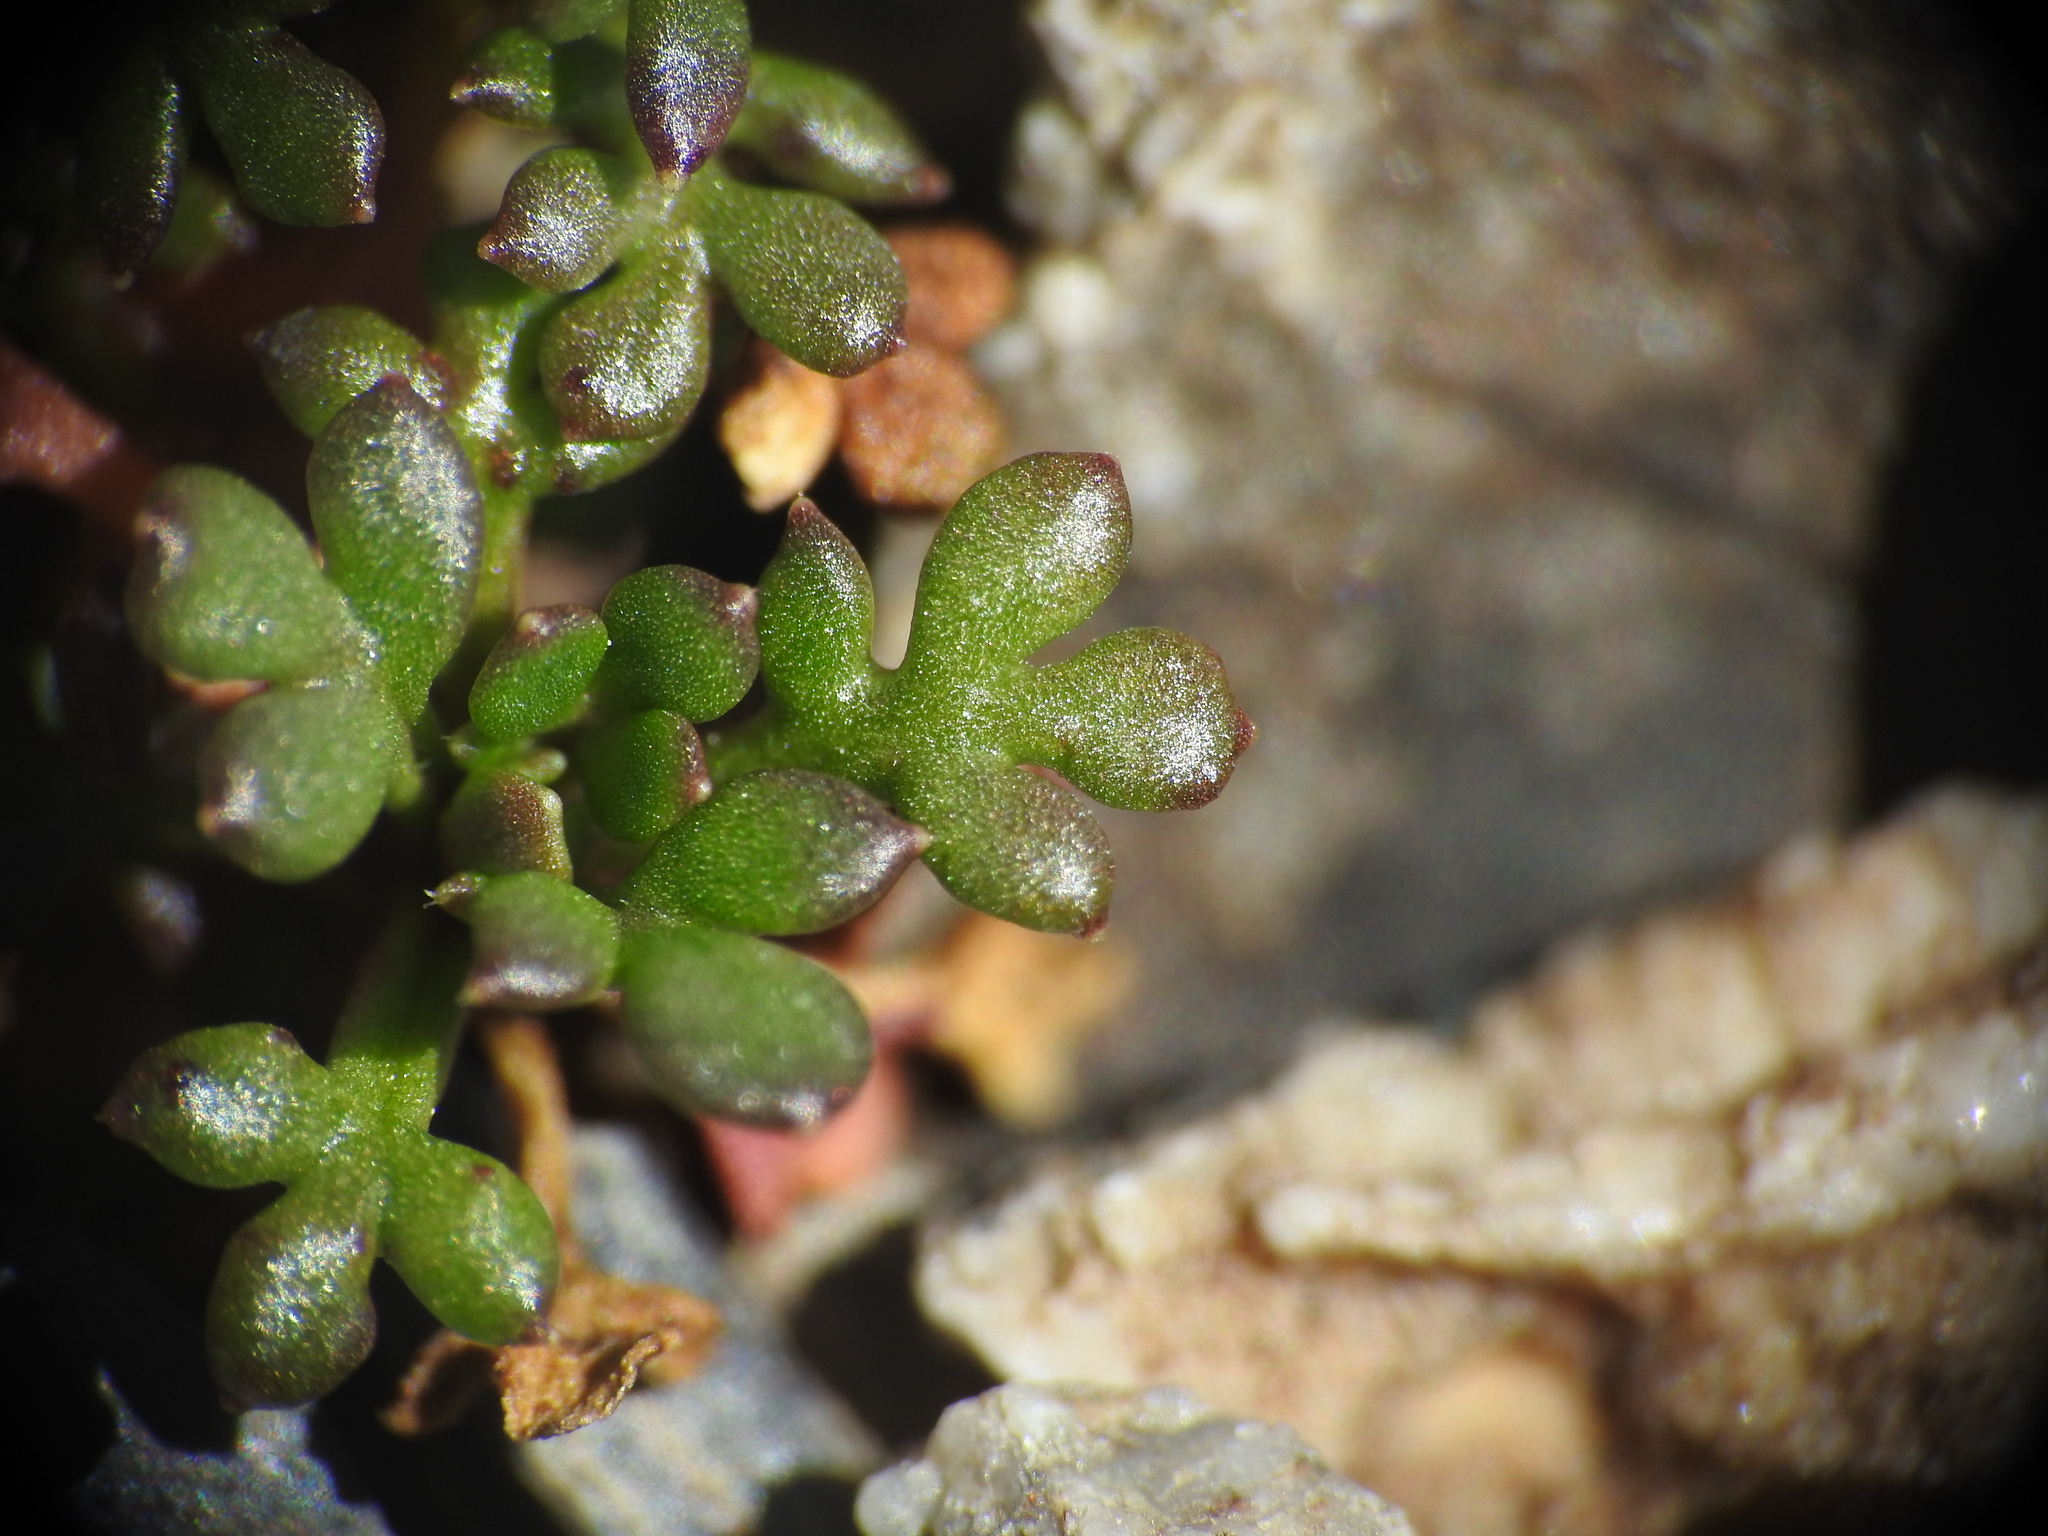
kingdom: Plantae
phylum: Tracheophyta
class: Magnoliopsida
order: Brassicales
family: Brassicaceae
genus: Hornungia
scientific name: Hornungia alpina
